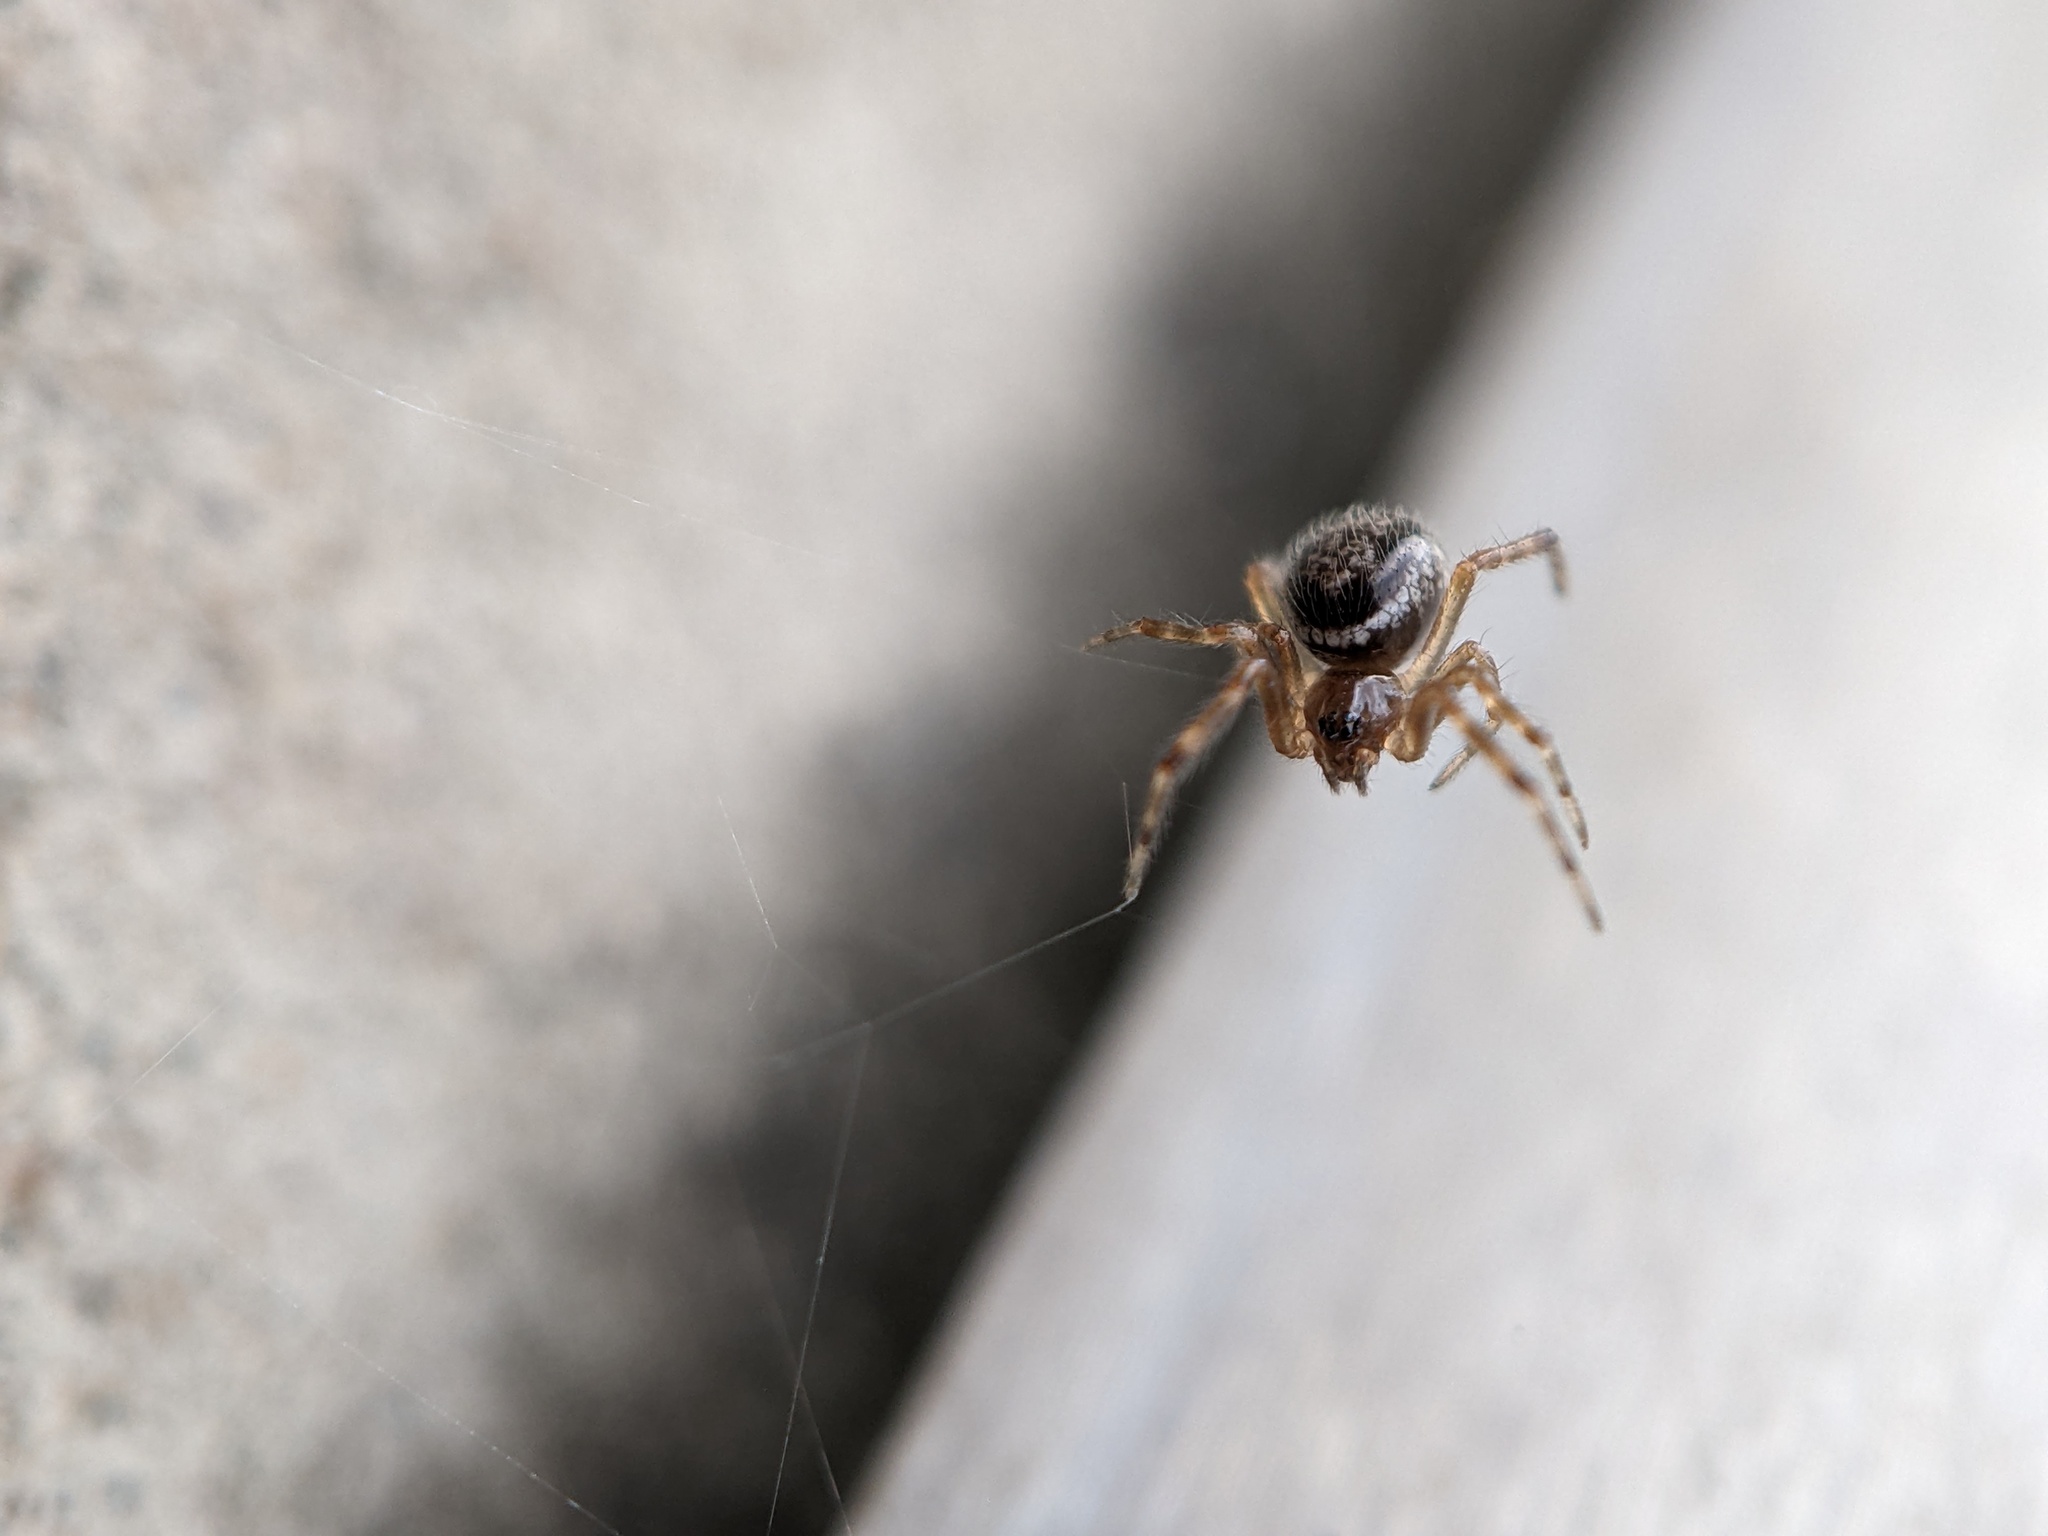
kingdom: Animalia
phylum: Arthropoda
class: Arachnida
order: Araneae
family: Theridiidae
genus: Steatoda
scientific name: Steatoda nobilis
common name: Cobweb weaver
